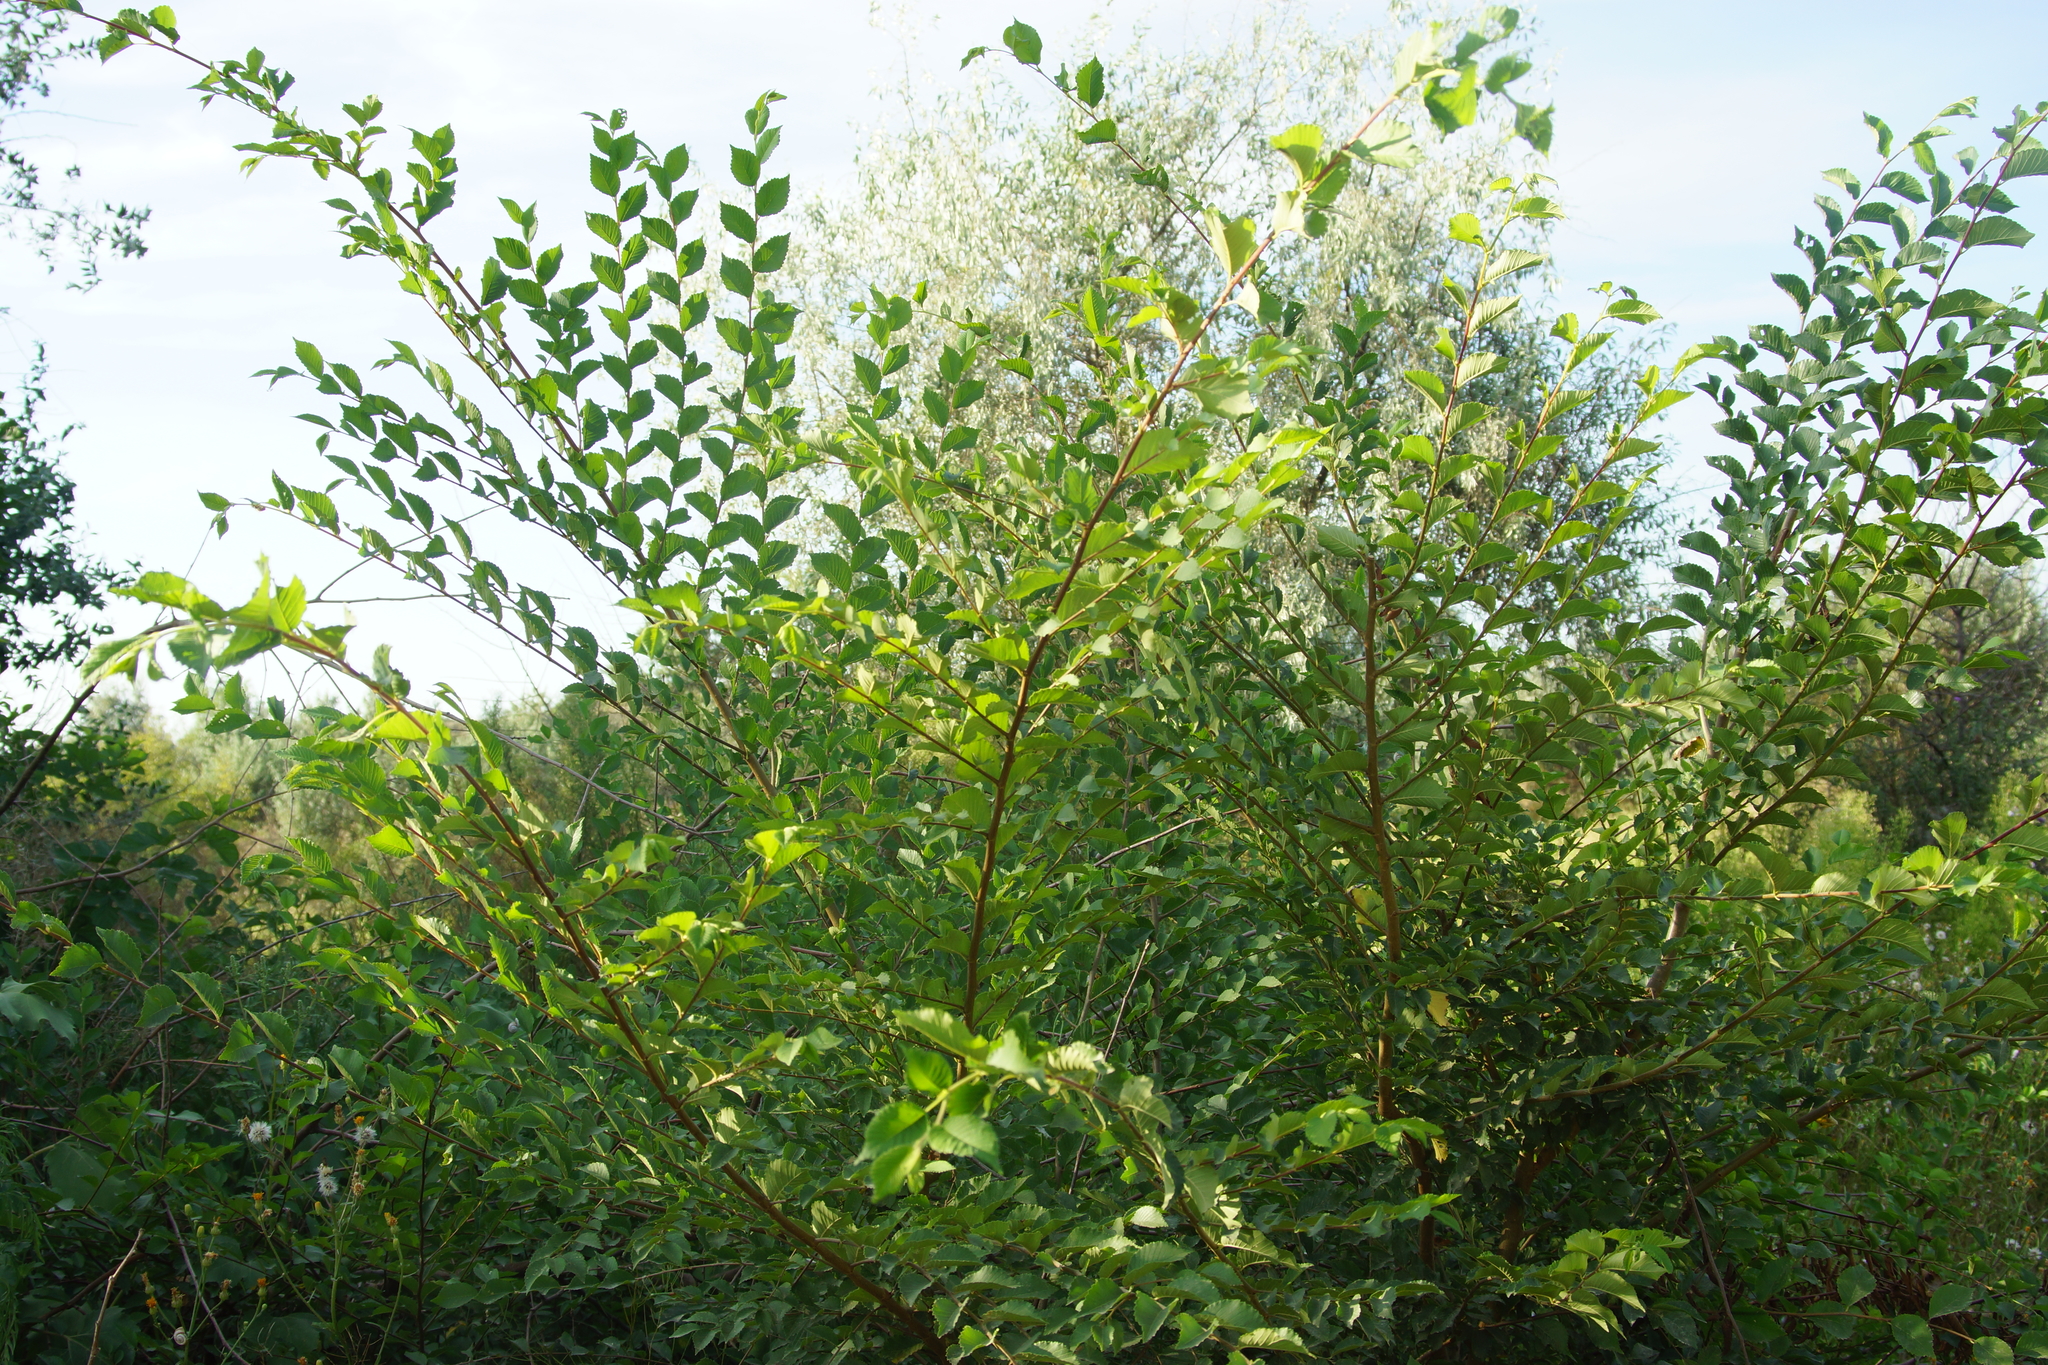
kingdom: Plantae
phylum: Tracheophyta
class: Magnoliopsida
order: Rosales
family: Ulmaceae
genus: Ulmus
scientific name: Ulmus pumila
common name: Siberian elm
